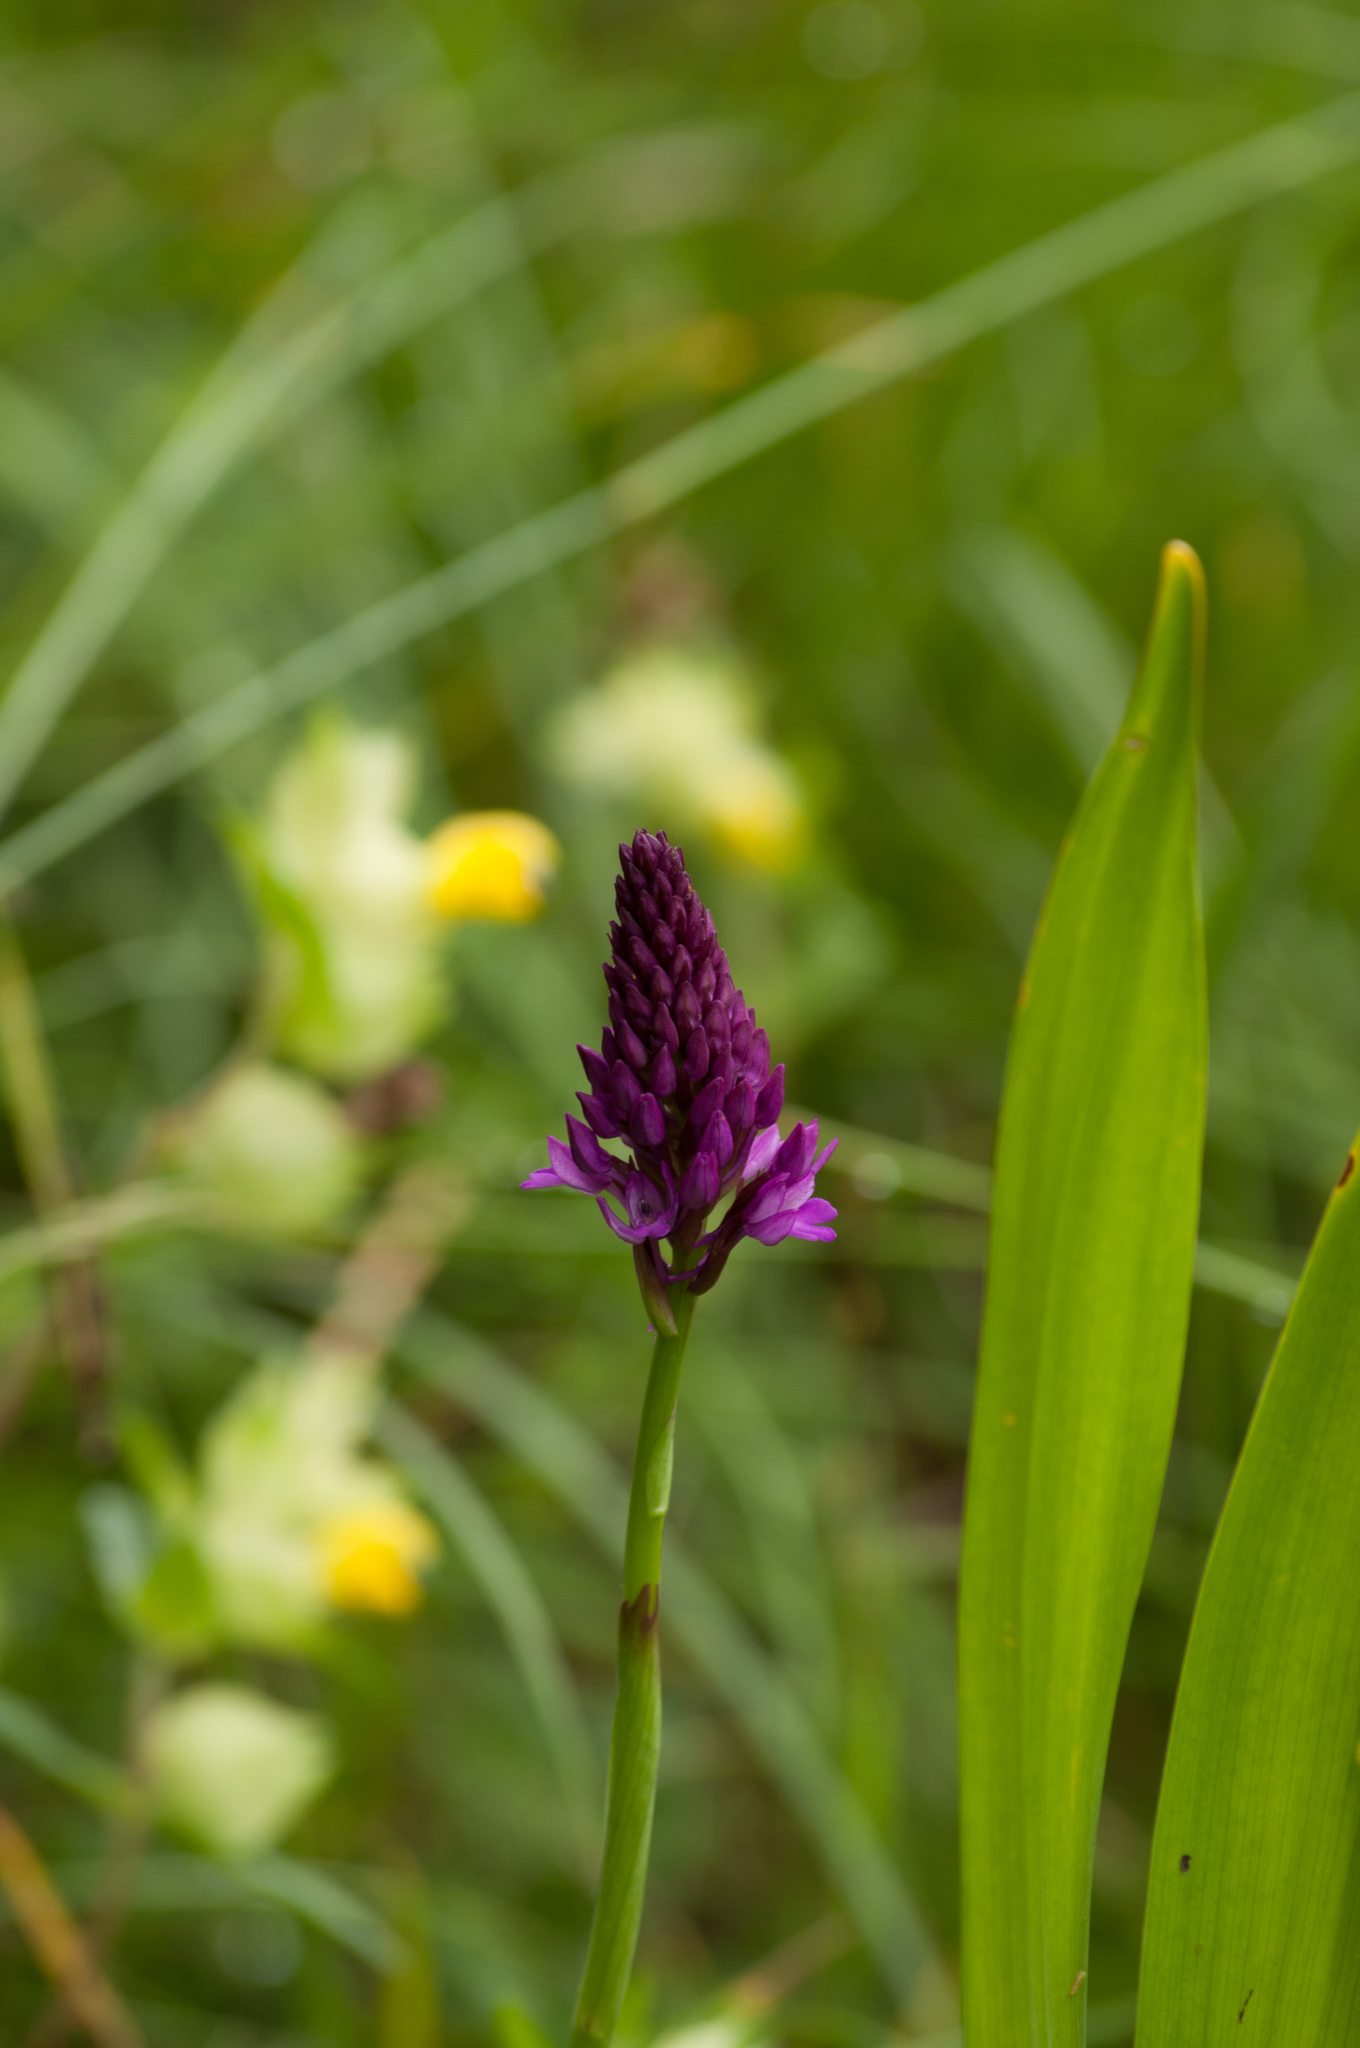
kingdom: Plantae
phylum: Tracheophyta
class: Liliopsida
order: Asparagales
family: Orchidaceae
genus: Anacamptis
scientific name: Anacamptis pyramidalis
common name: Pyramidal orchid
